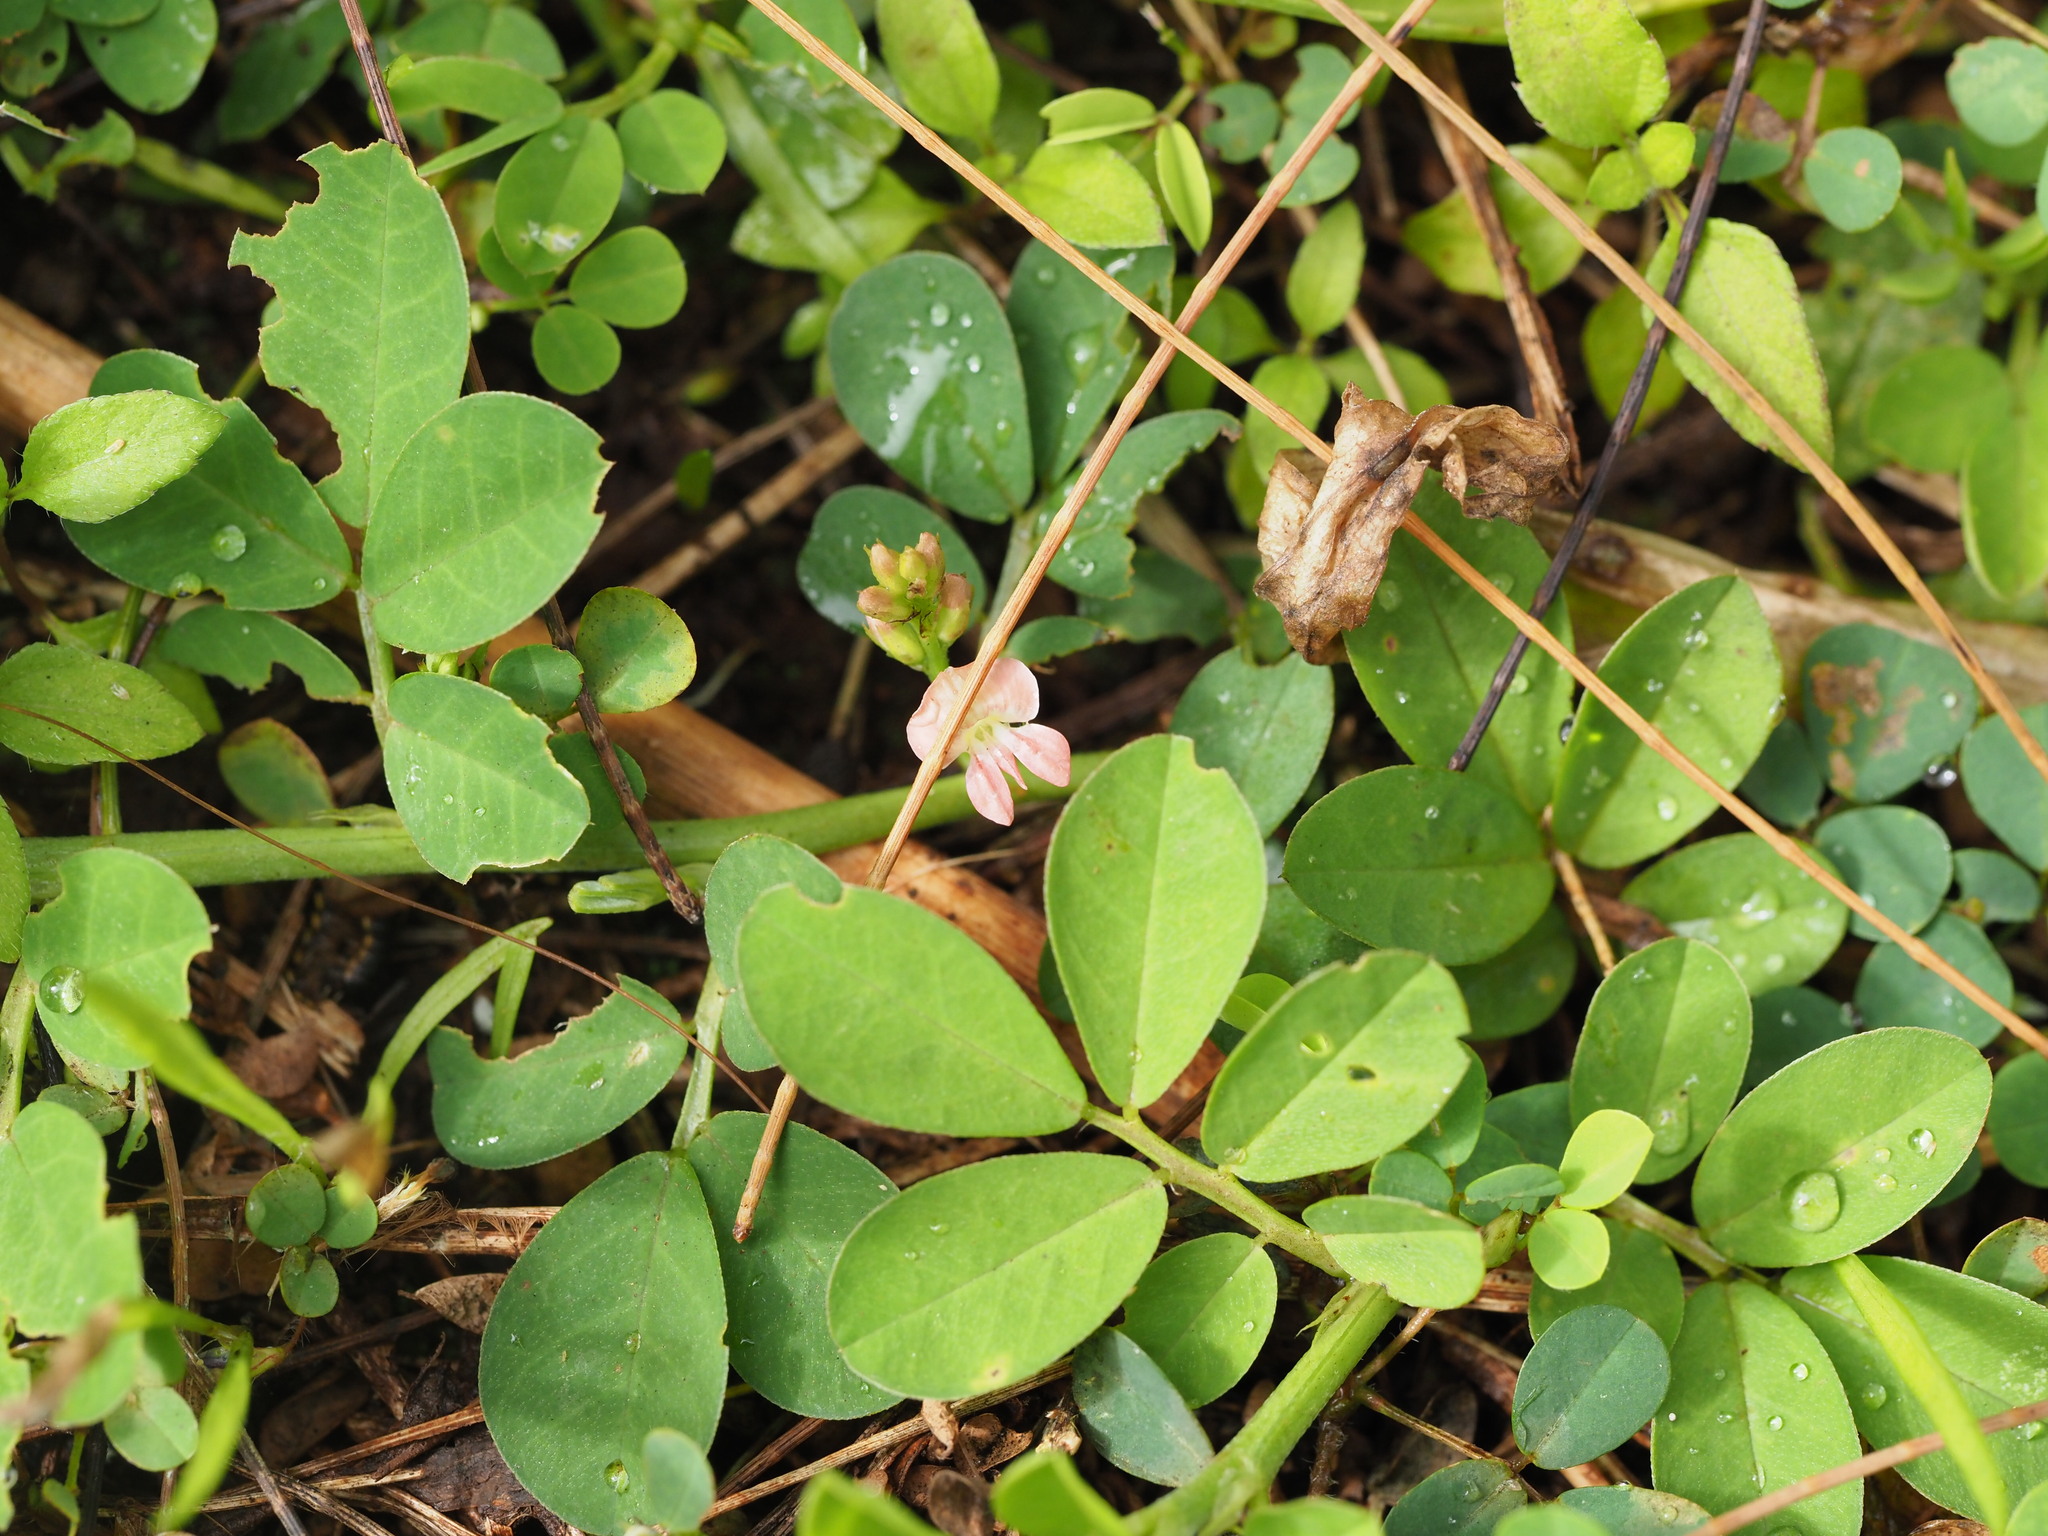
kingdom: Plantae
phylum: Tracheophyta
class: Magnoliopsida
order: Fabales
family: Fabaceae
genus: Indigofera
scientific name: Indigofera spicata
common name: Creeping indigo
